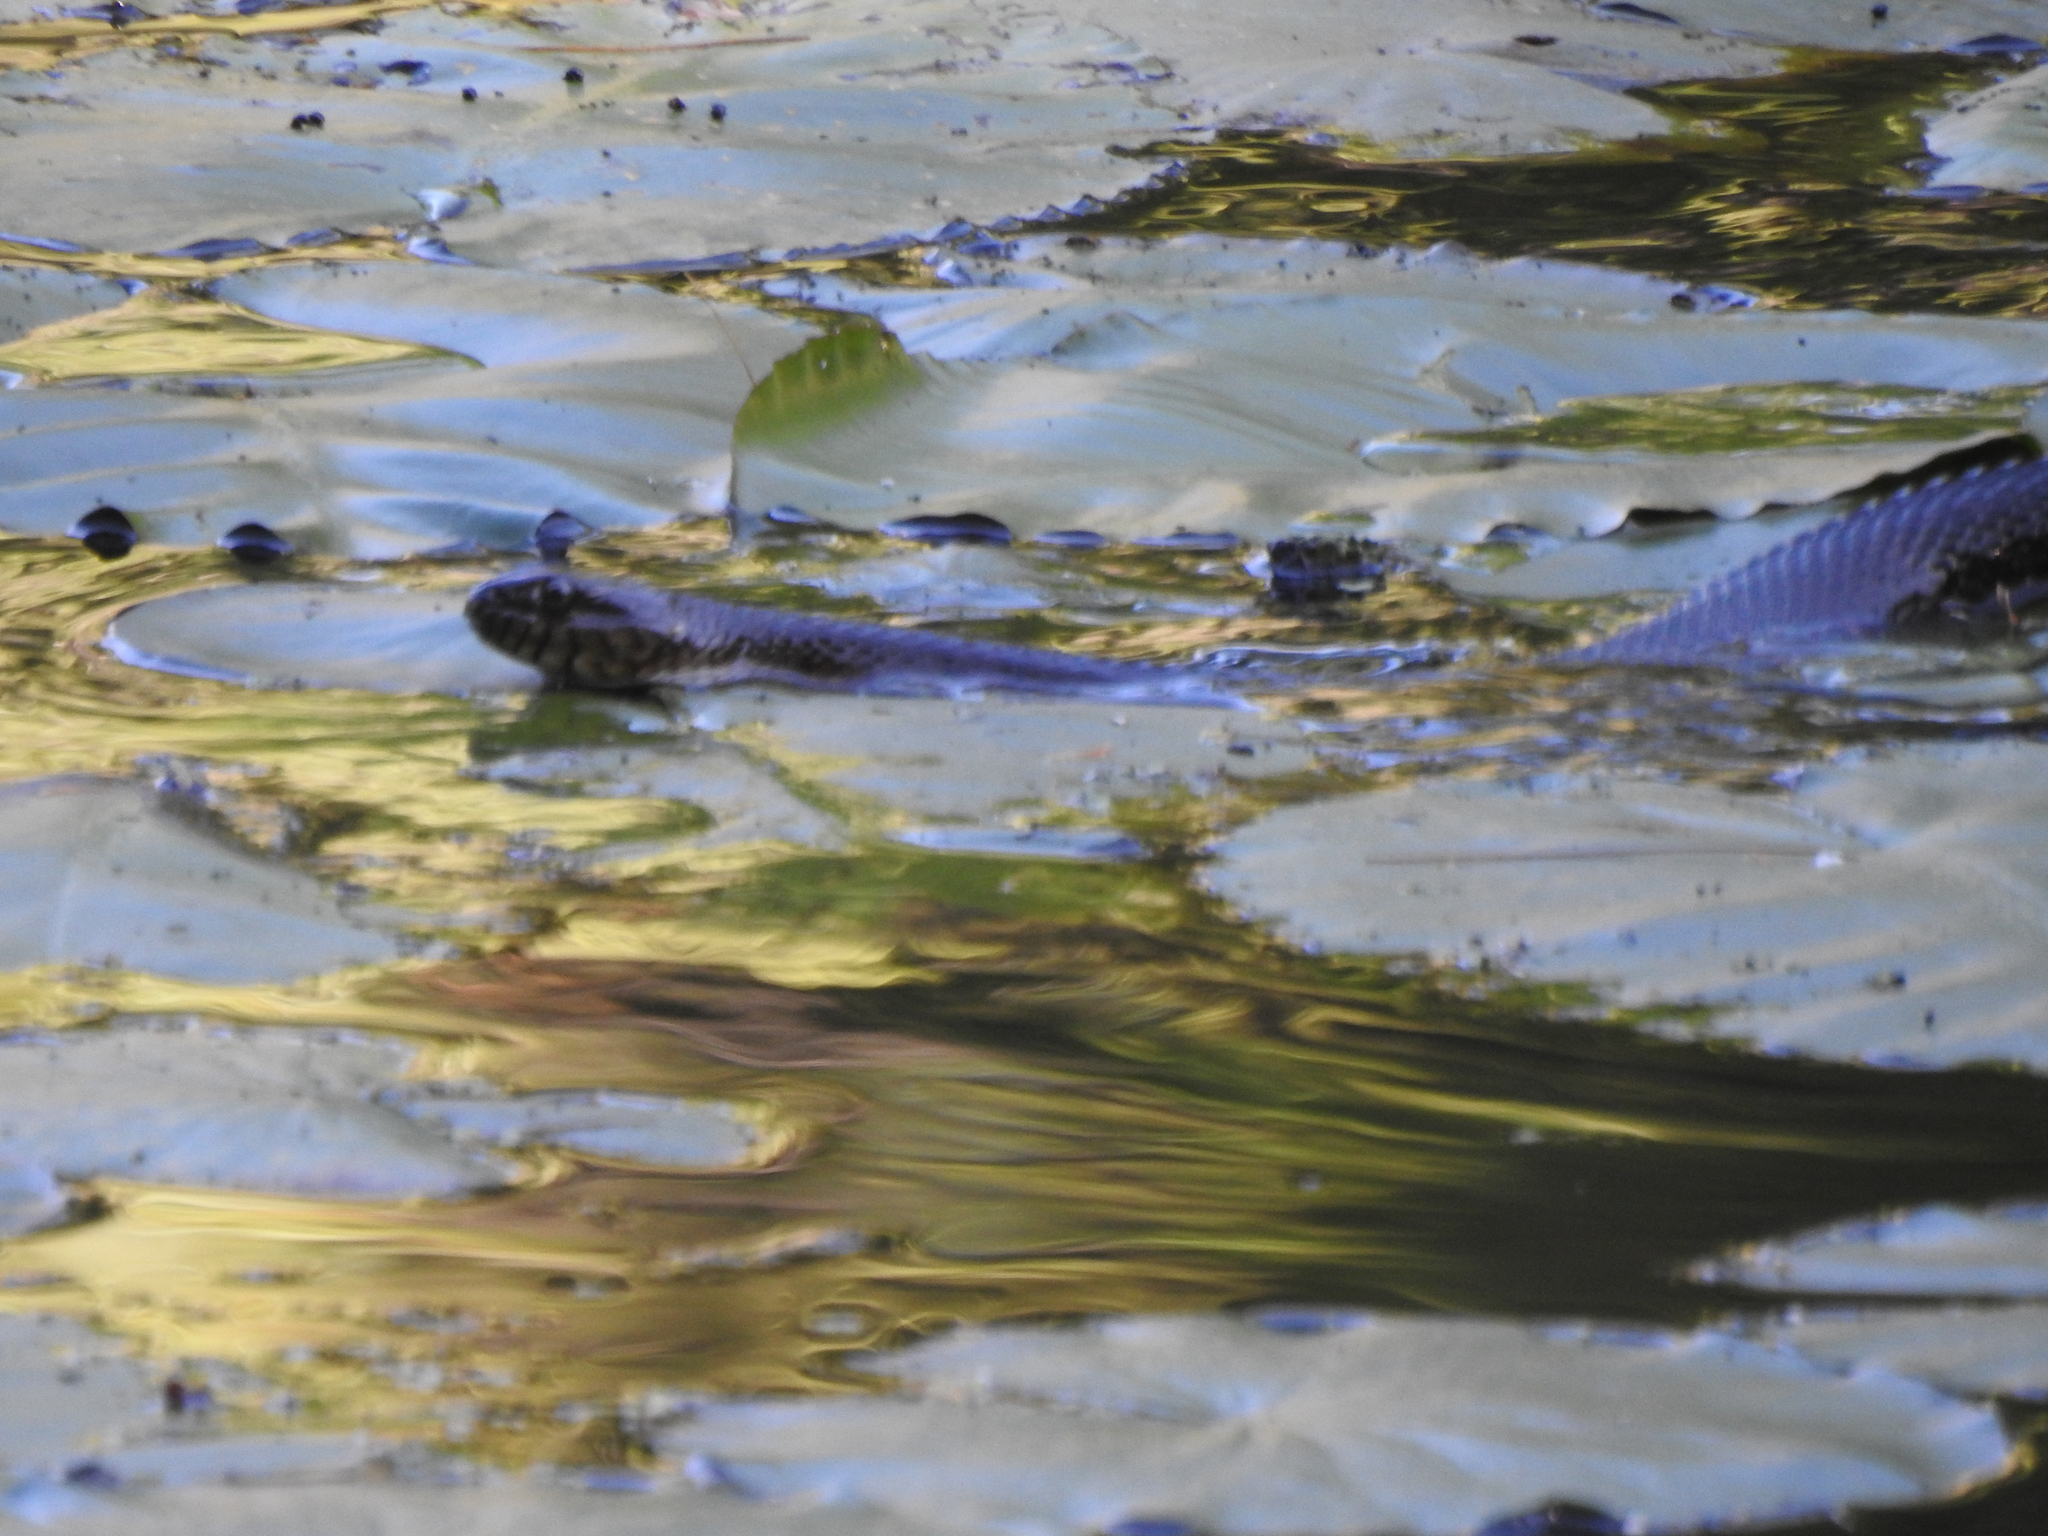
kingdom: Animalia
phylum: Chordata
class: Squamata
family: Colubridae
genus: Nerodia
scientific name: Nerodia sipedon
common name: Northern water snake
